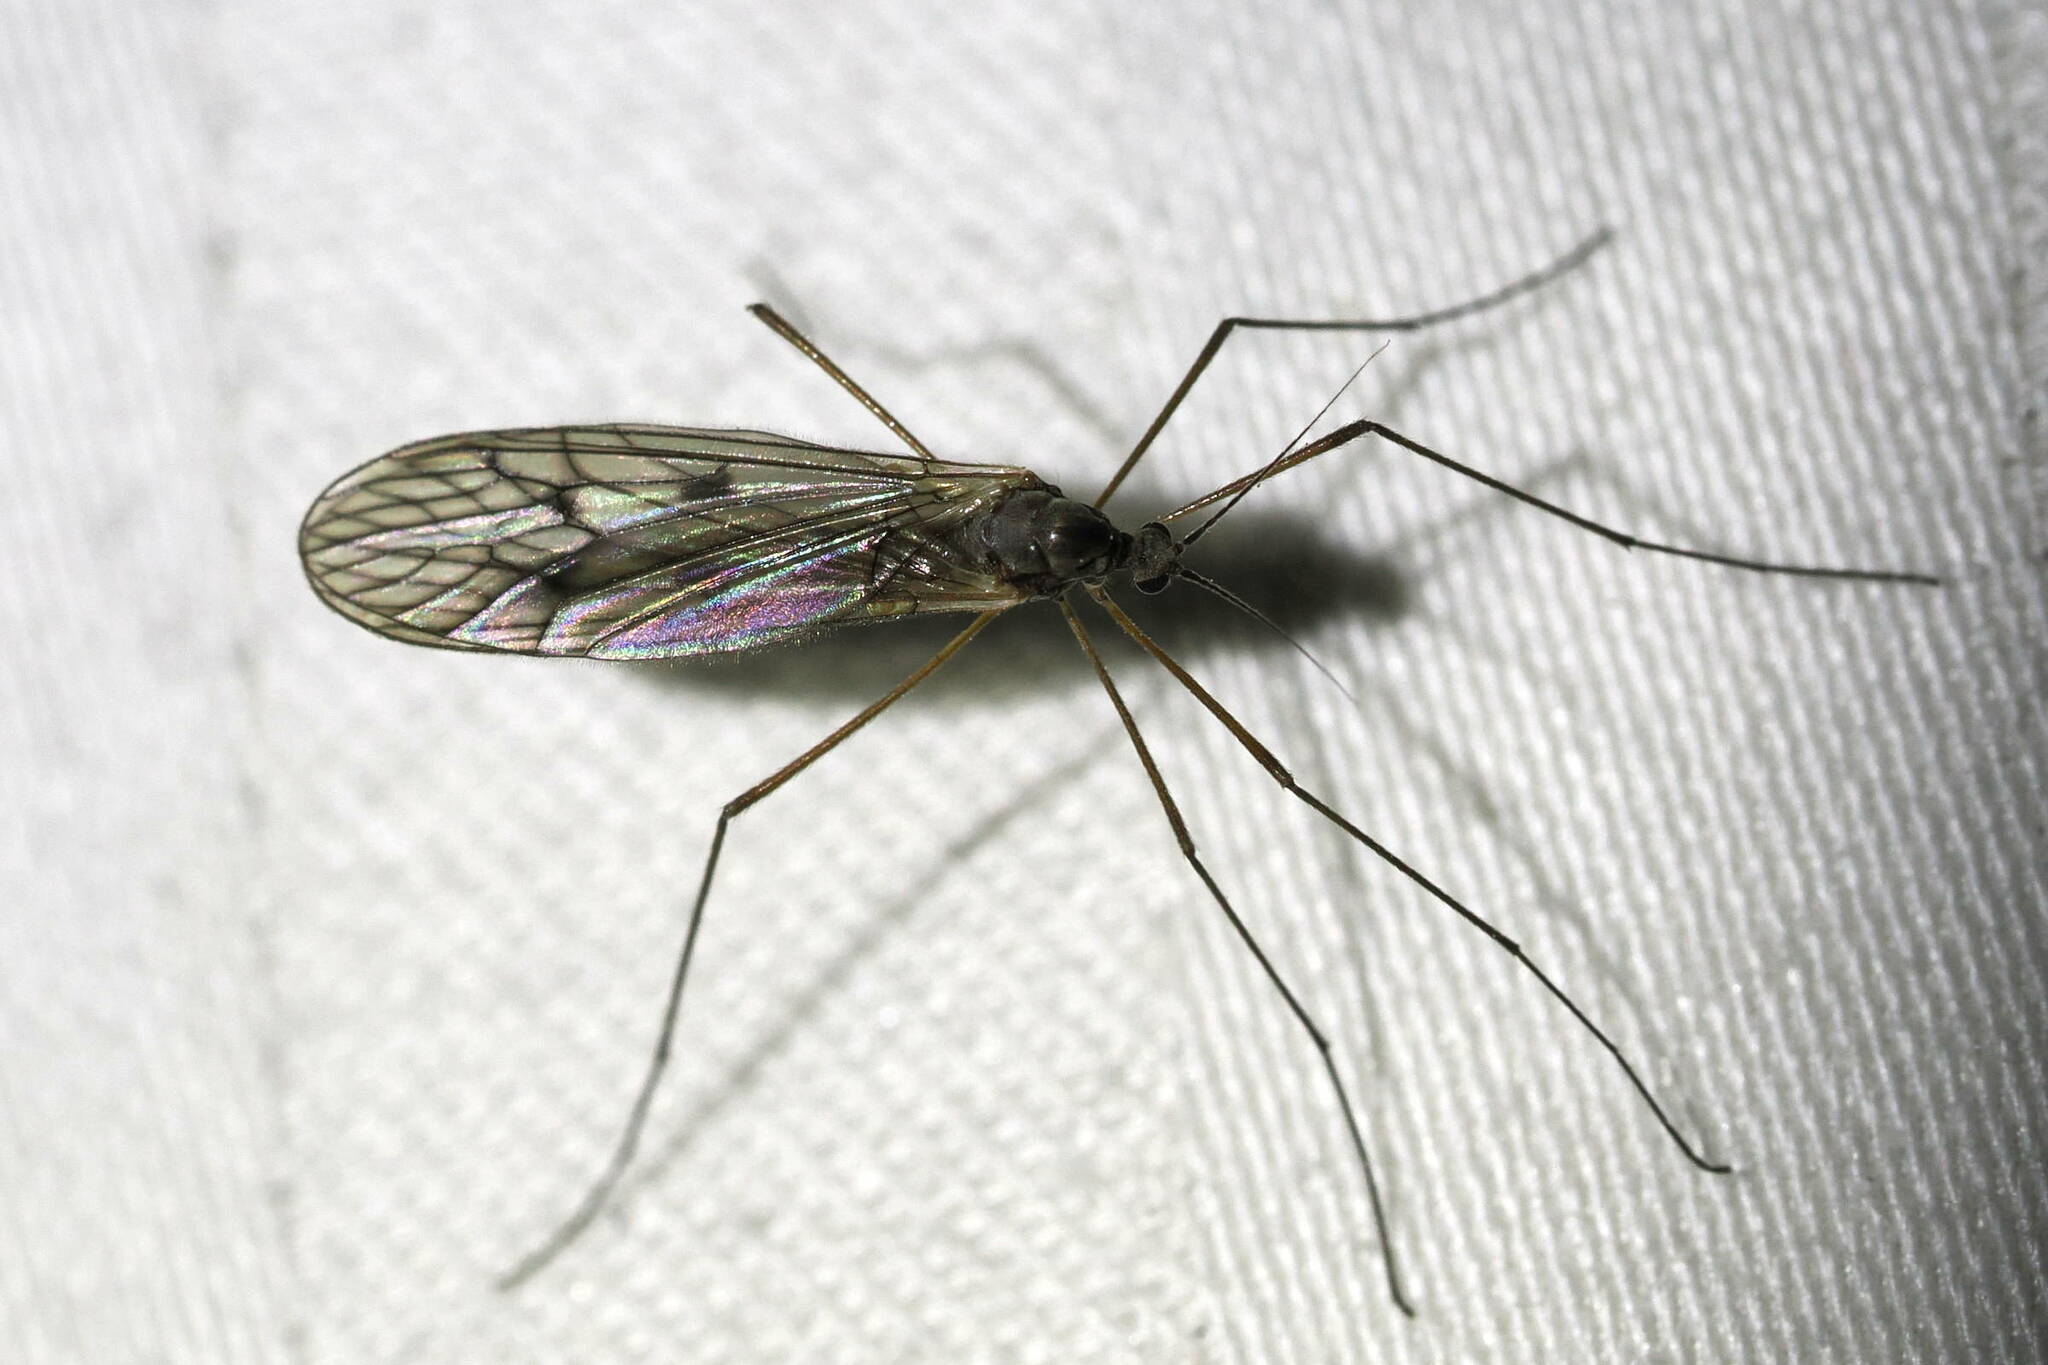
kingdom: Animalia
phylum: Arthropoda
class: Insecta
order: Diptera
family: Trichoceridae
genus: Trichocera
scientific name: Trichocera bimacula
